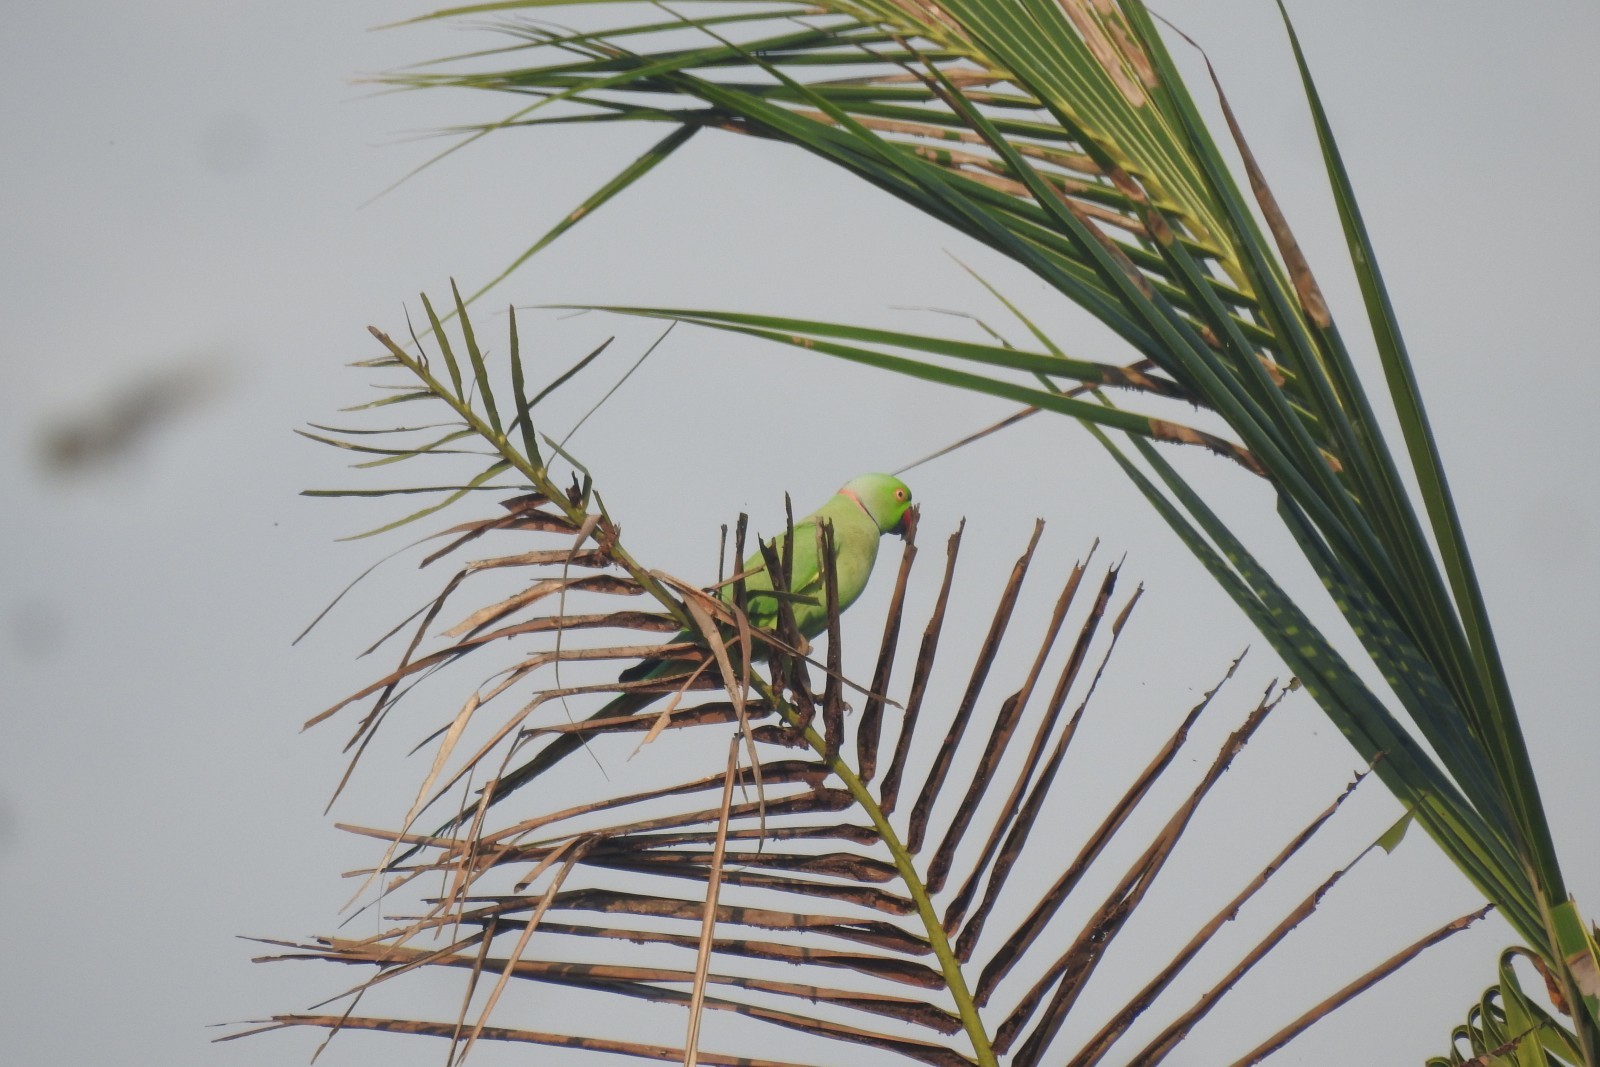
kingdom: Animalia
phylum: Chordata
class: Aves
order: Psittaciformes
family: Psittacidae
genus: Psittacula
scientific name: Psittacula krameri
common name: Rose-ringed parakeet
